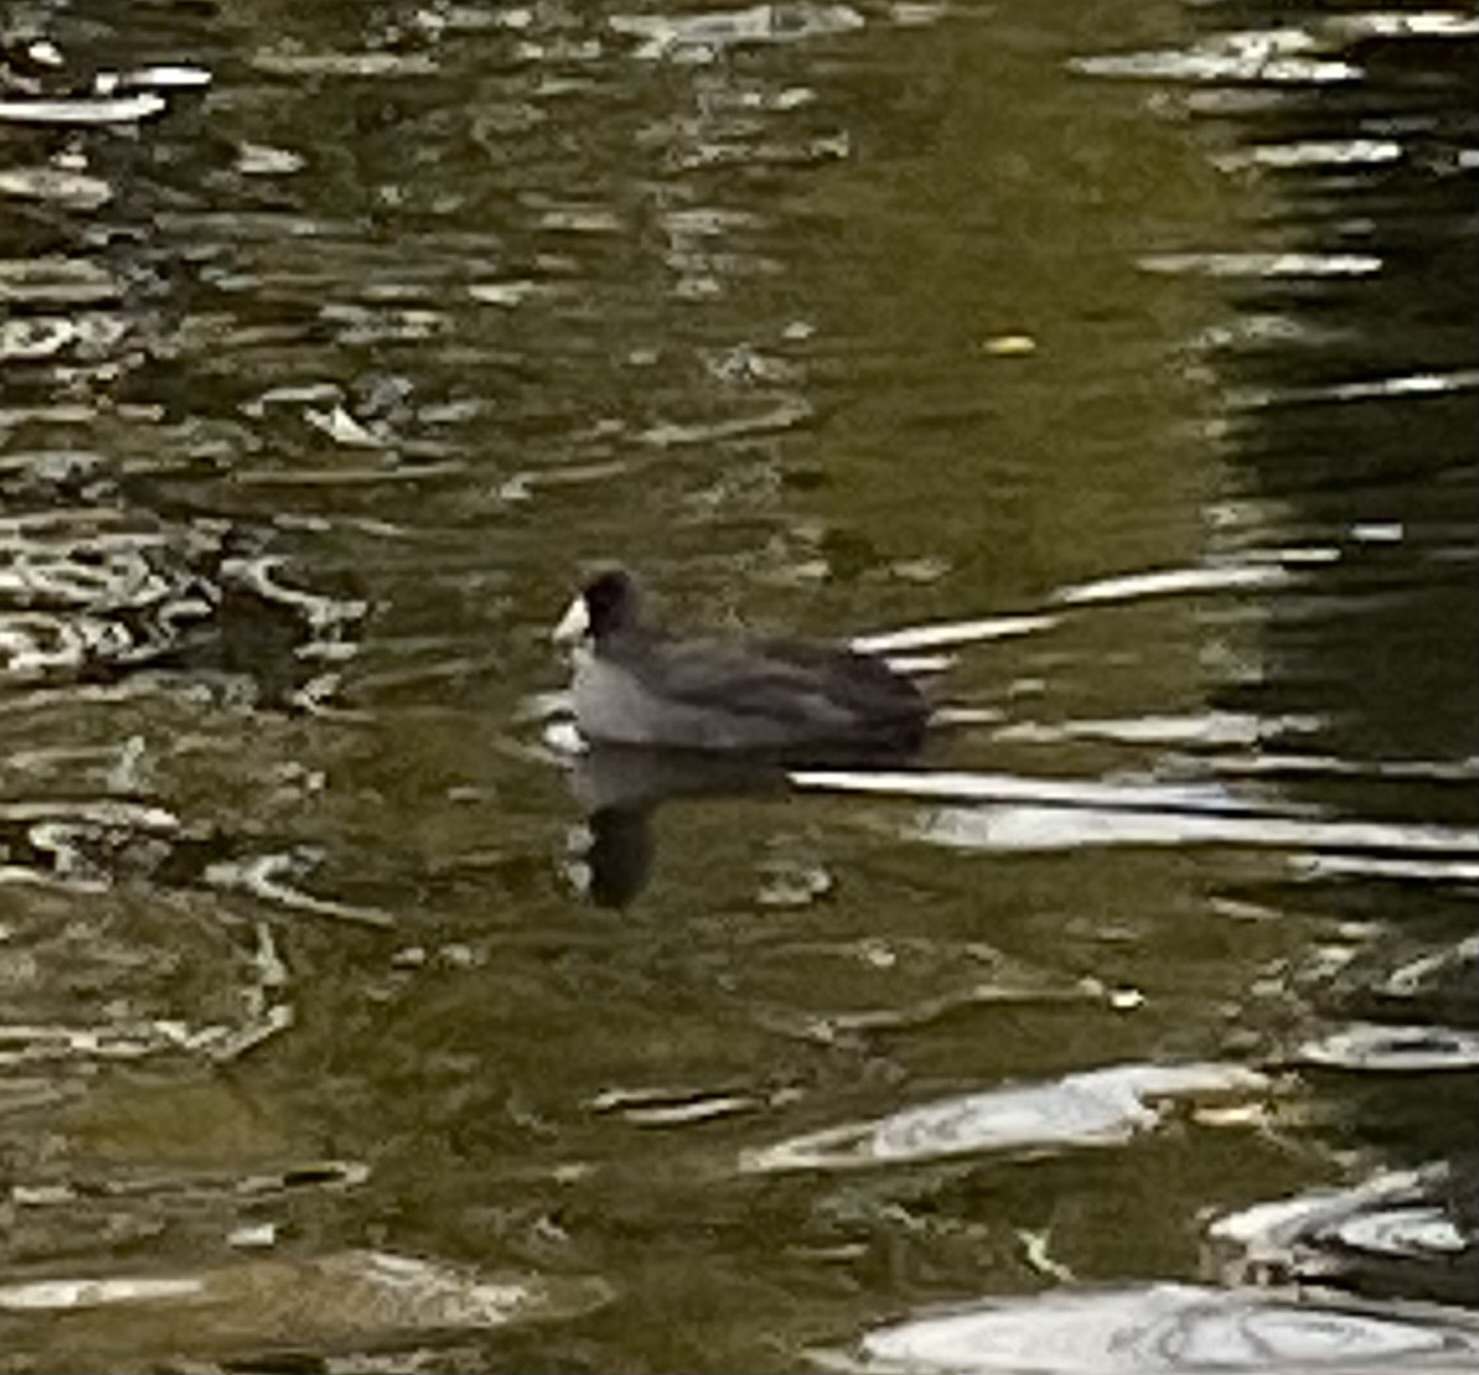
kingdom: Animalia
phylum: Chordata
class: Aves
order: Gruiformes
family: Rallidae
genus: Fulica
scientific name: Fulica americana
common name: American coot
